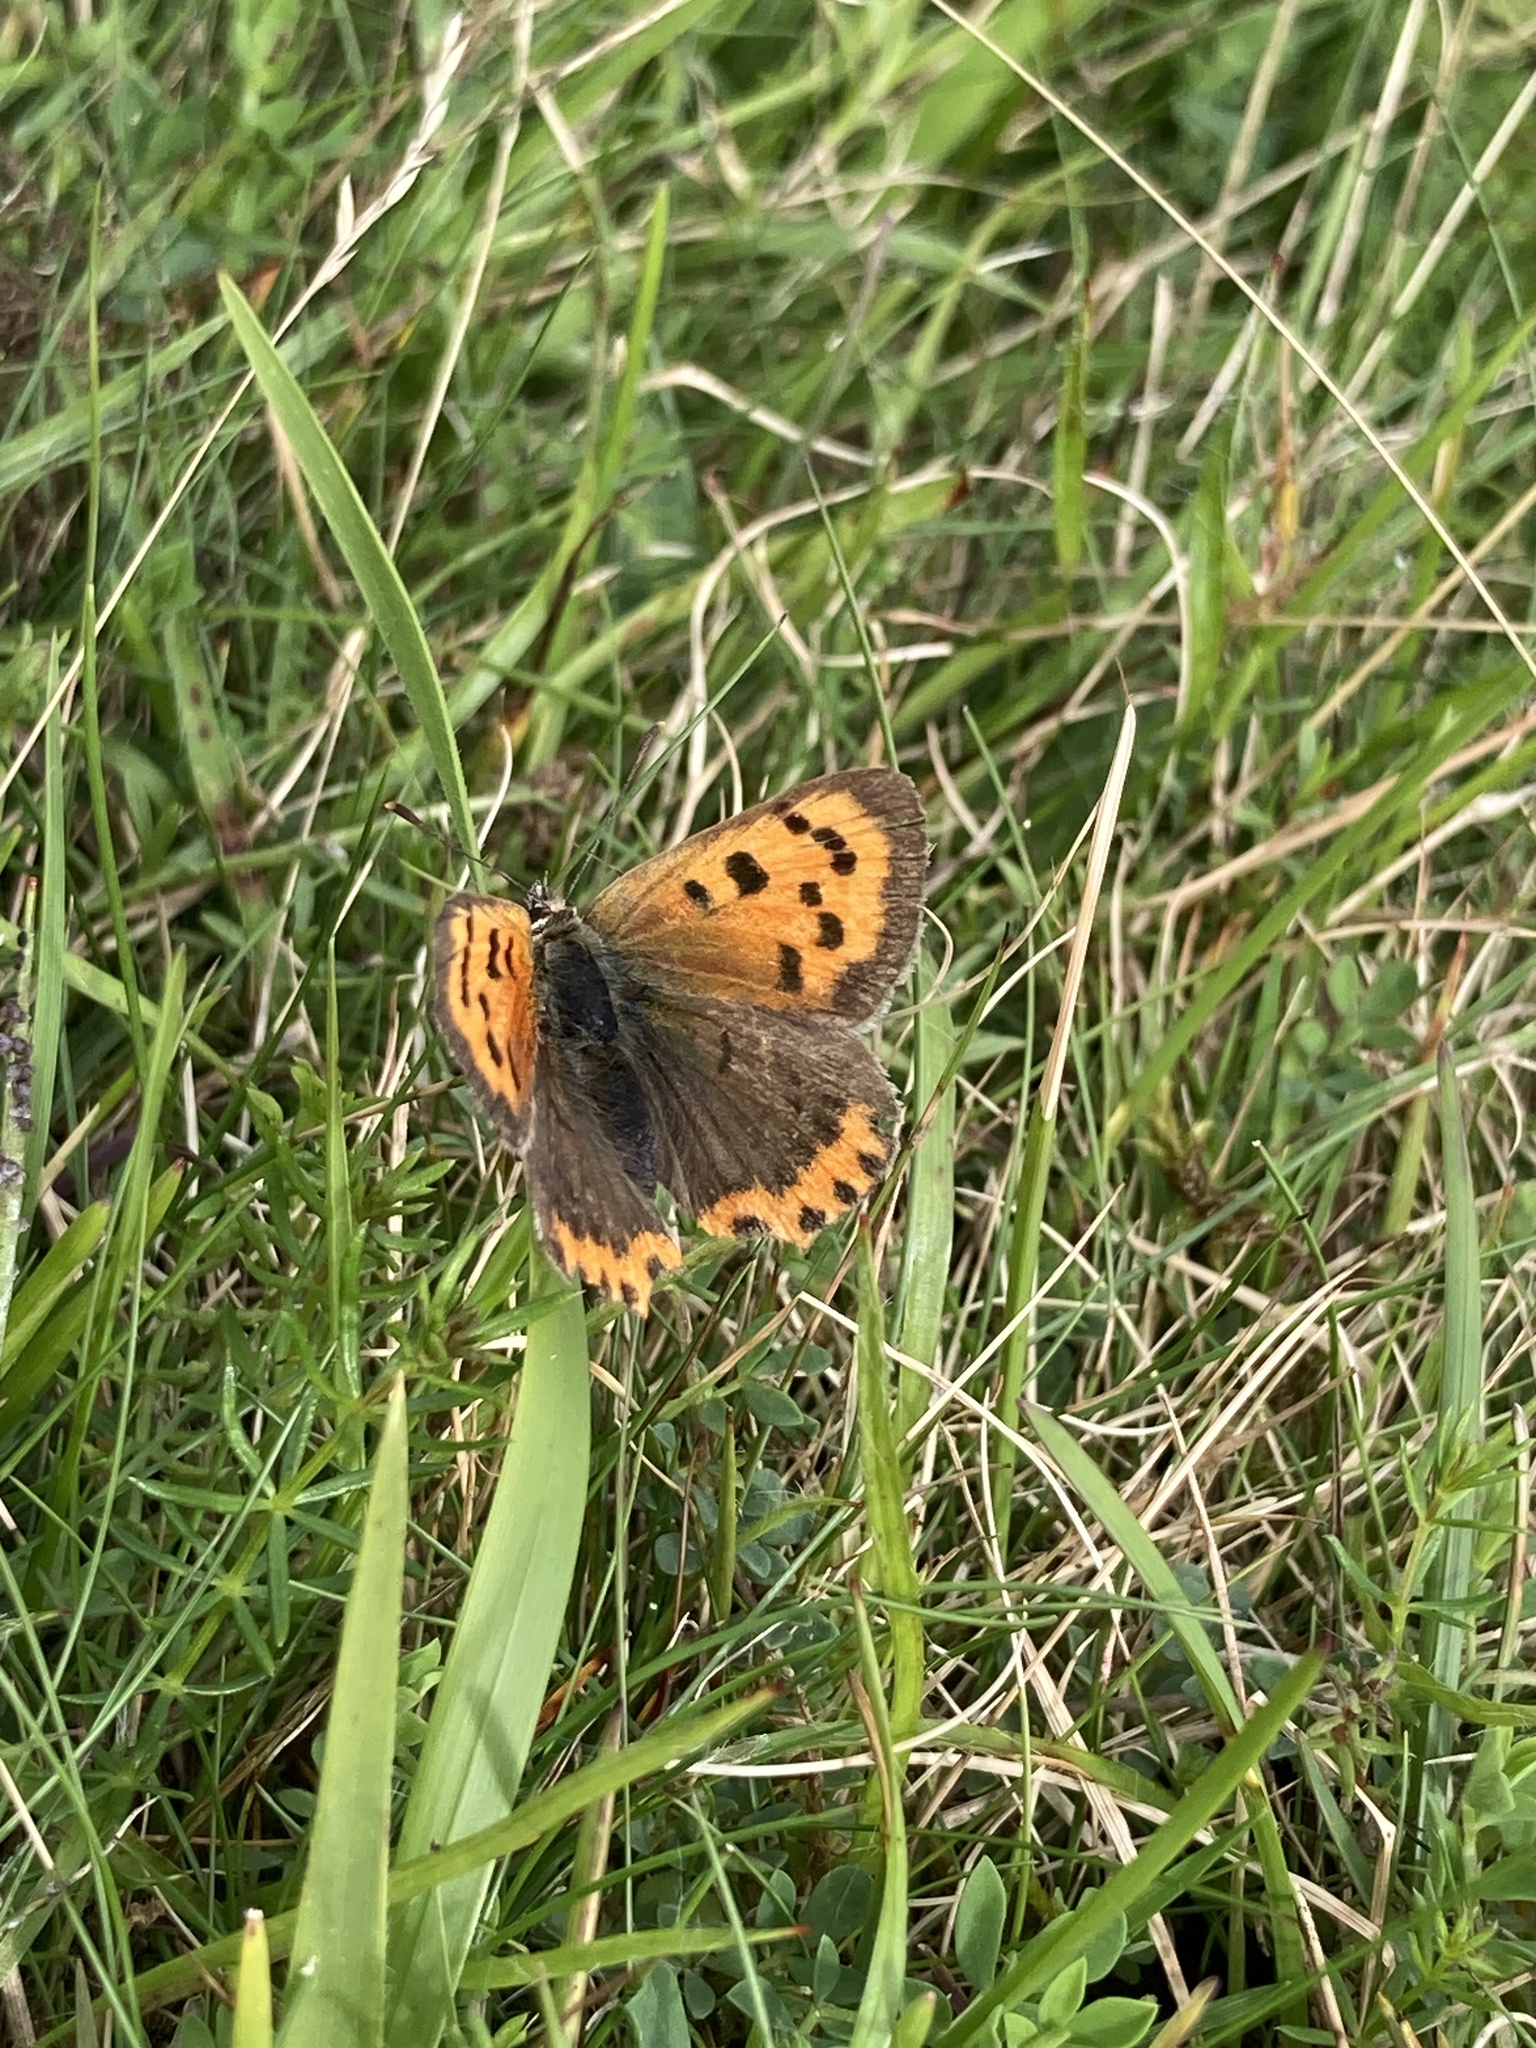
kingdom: Animalia
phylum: Arthropoda
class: Insecta
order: Lepidoptera
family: Lycaenidae
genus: Lycaena
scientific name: Lycaena phlaeas
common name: Small copper
